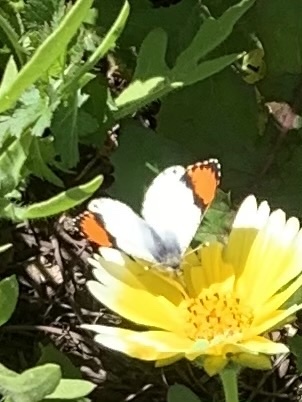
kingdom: Animalia
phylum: Arthropoda
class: Insecta
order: Lepidoptera
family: Pieridae
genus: Anthocharis
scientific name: Anthocharis sara
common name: Sara's orangetip
